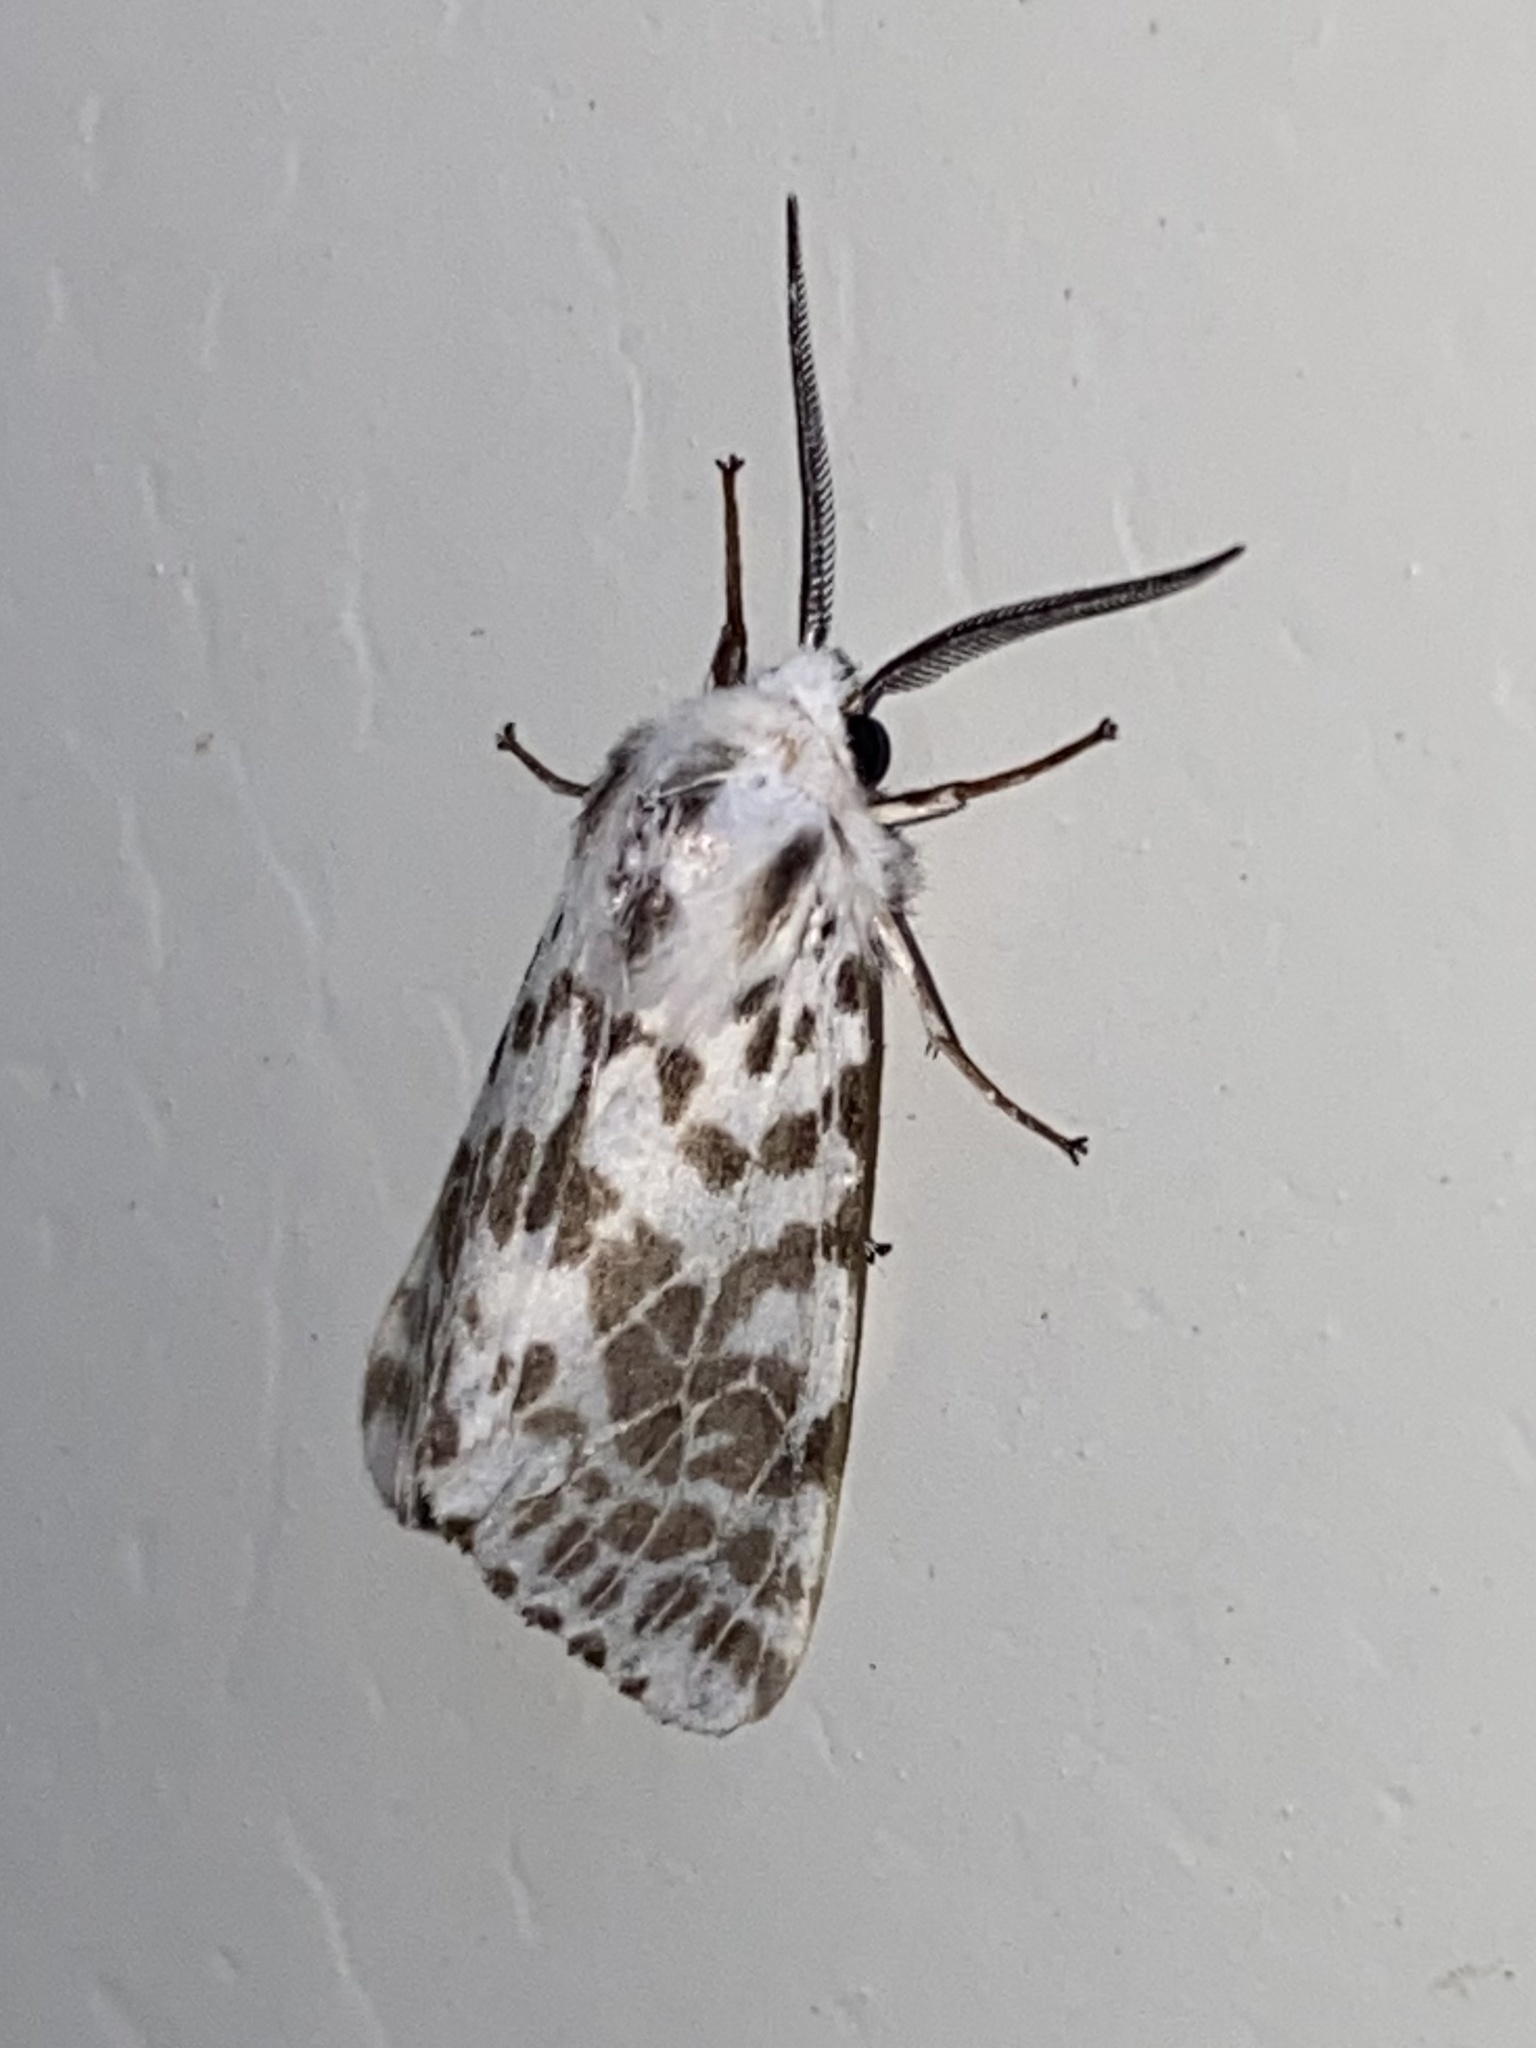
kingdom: Animalia
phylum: Arthropoda
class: Insecta
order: Lepidoptera
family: Erebidae
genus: Hyphantria
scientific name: Hyphantria cunea
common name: American white moth
